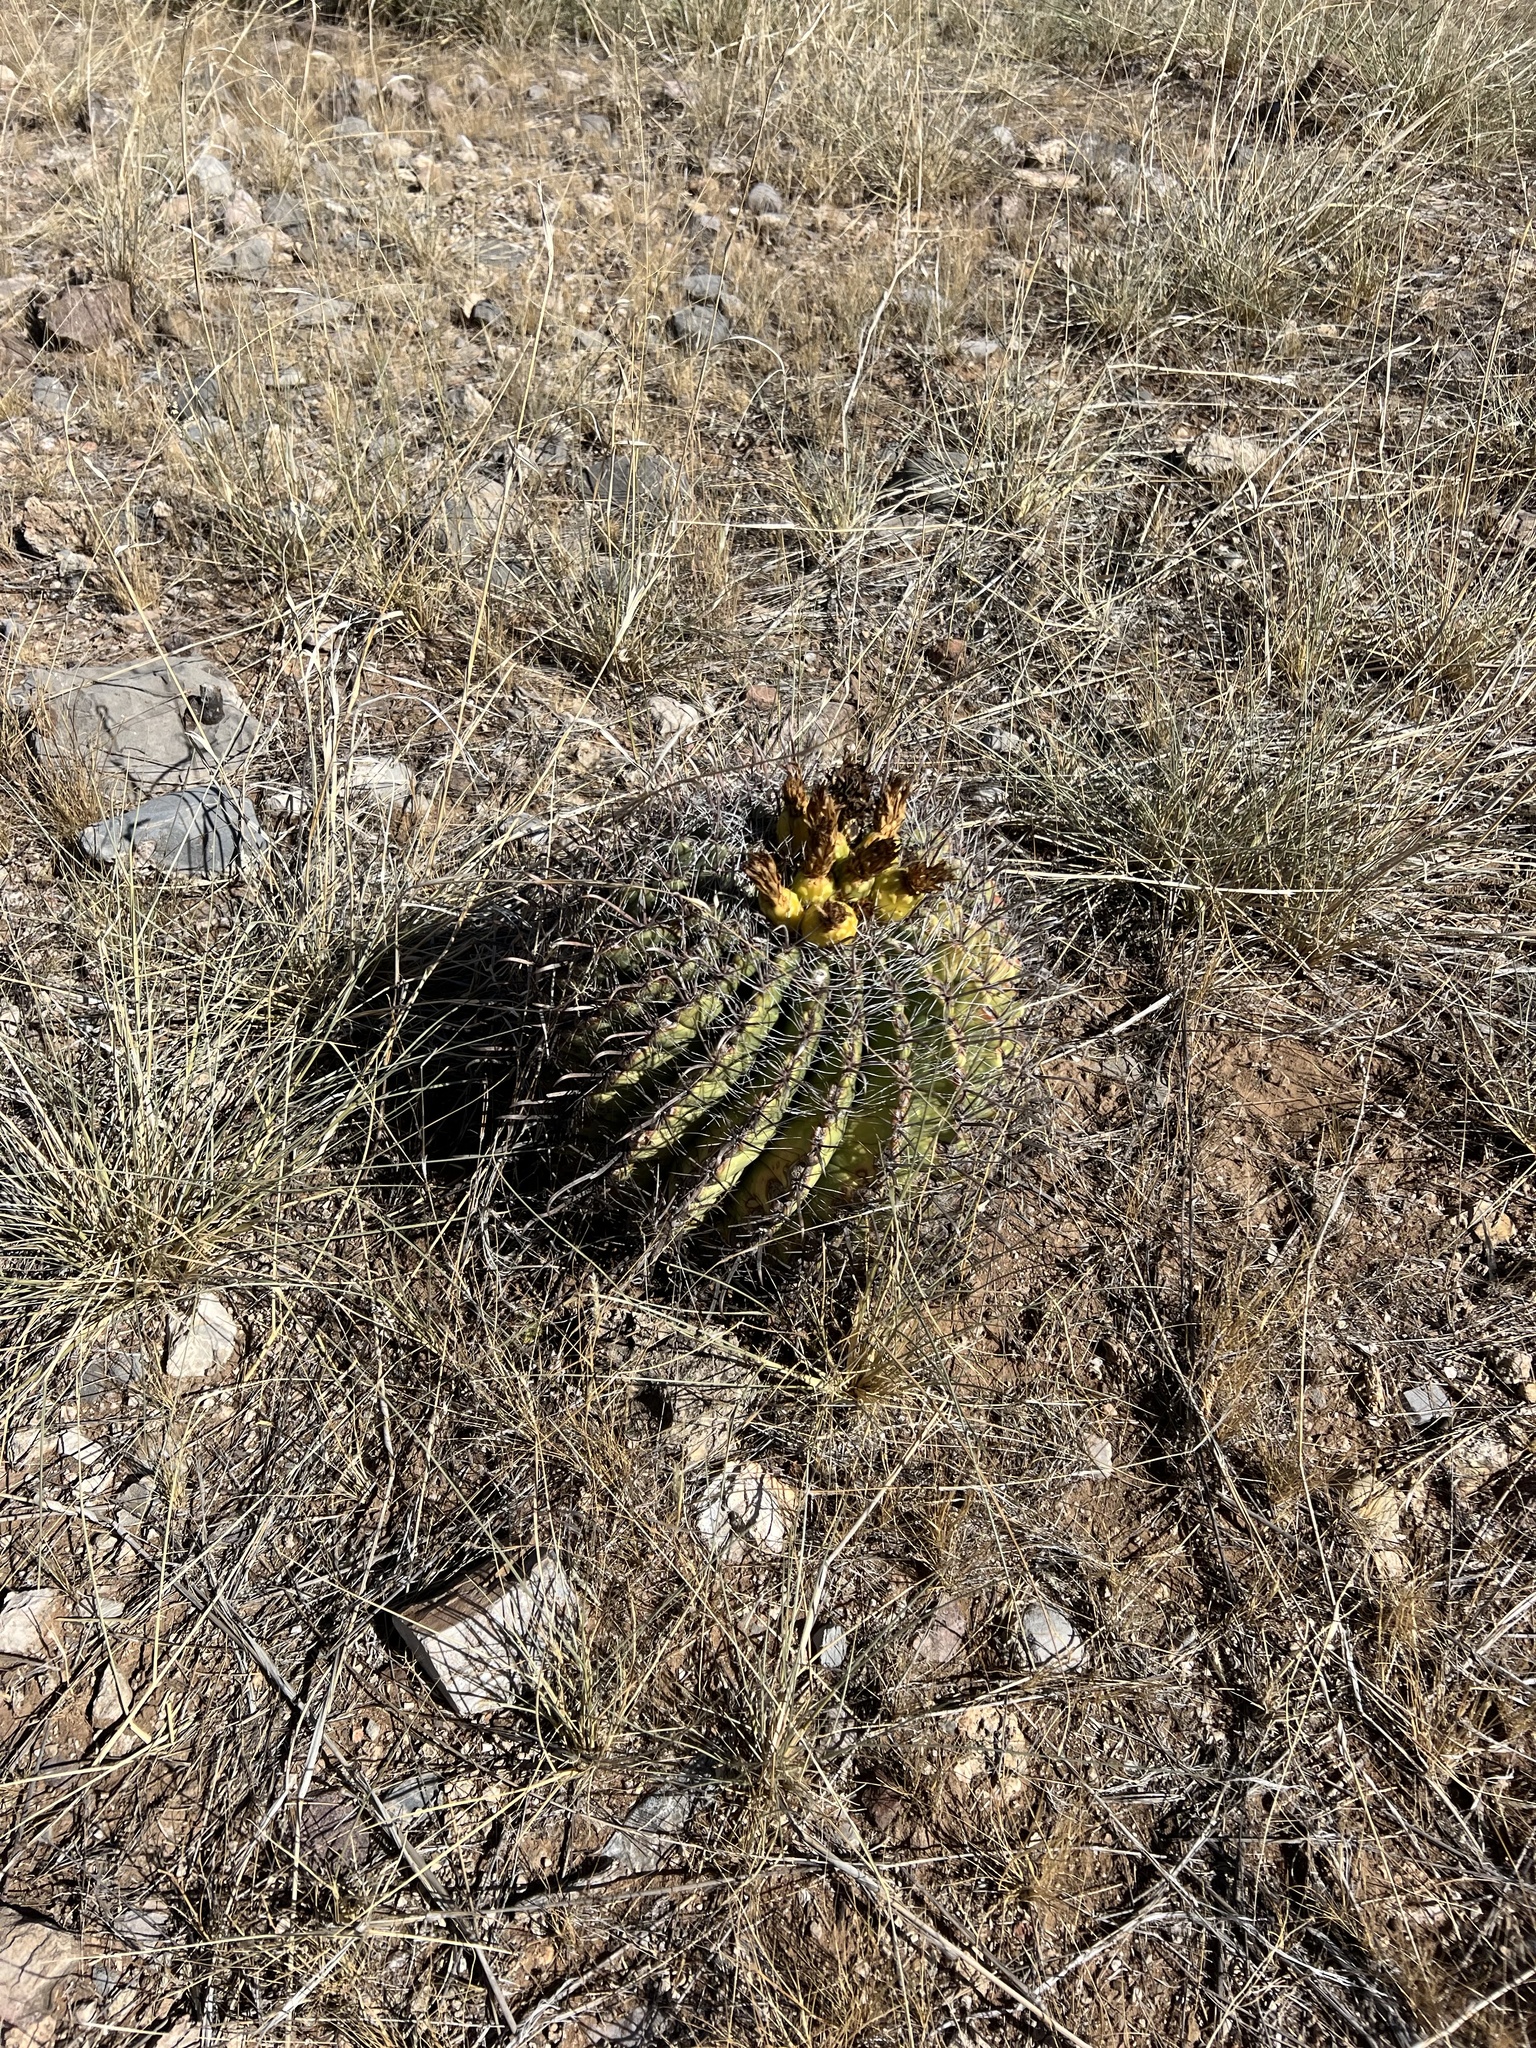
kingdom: Plantae
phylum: Tracheophyta
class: Magnoliopsida
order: Caryophyllales
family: Cactaceae
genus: Ferocactus
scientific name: Ferocactus wislizeni
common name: Candy barrel cactus
